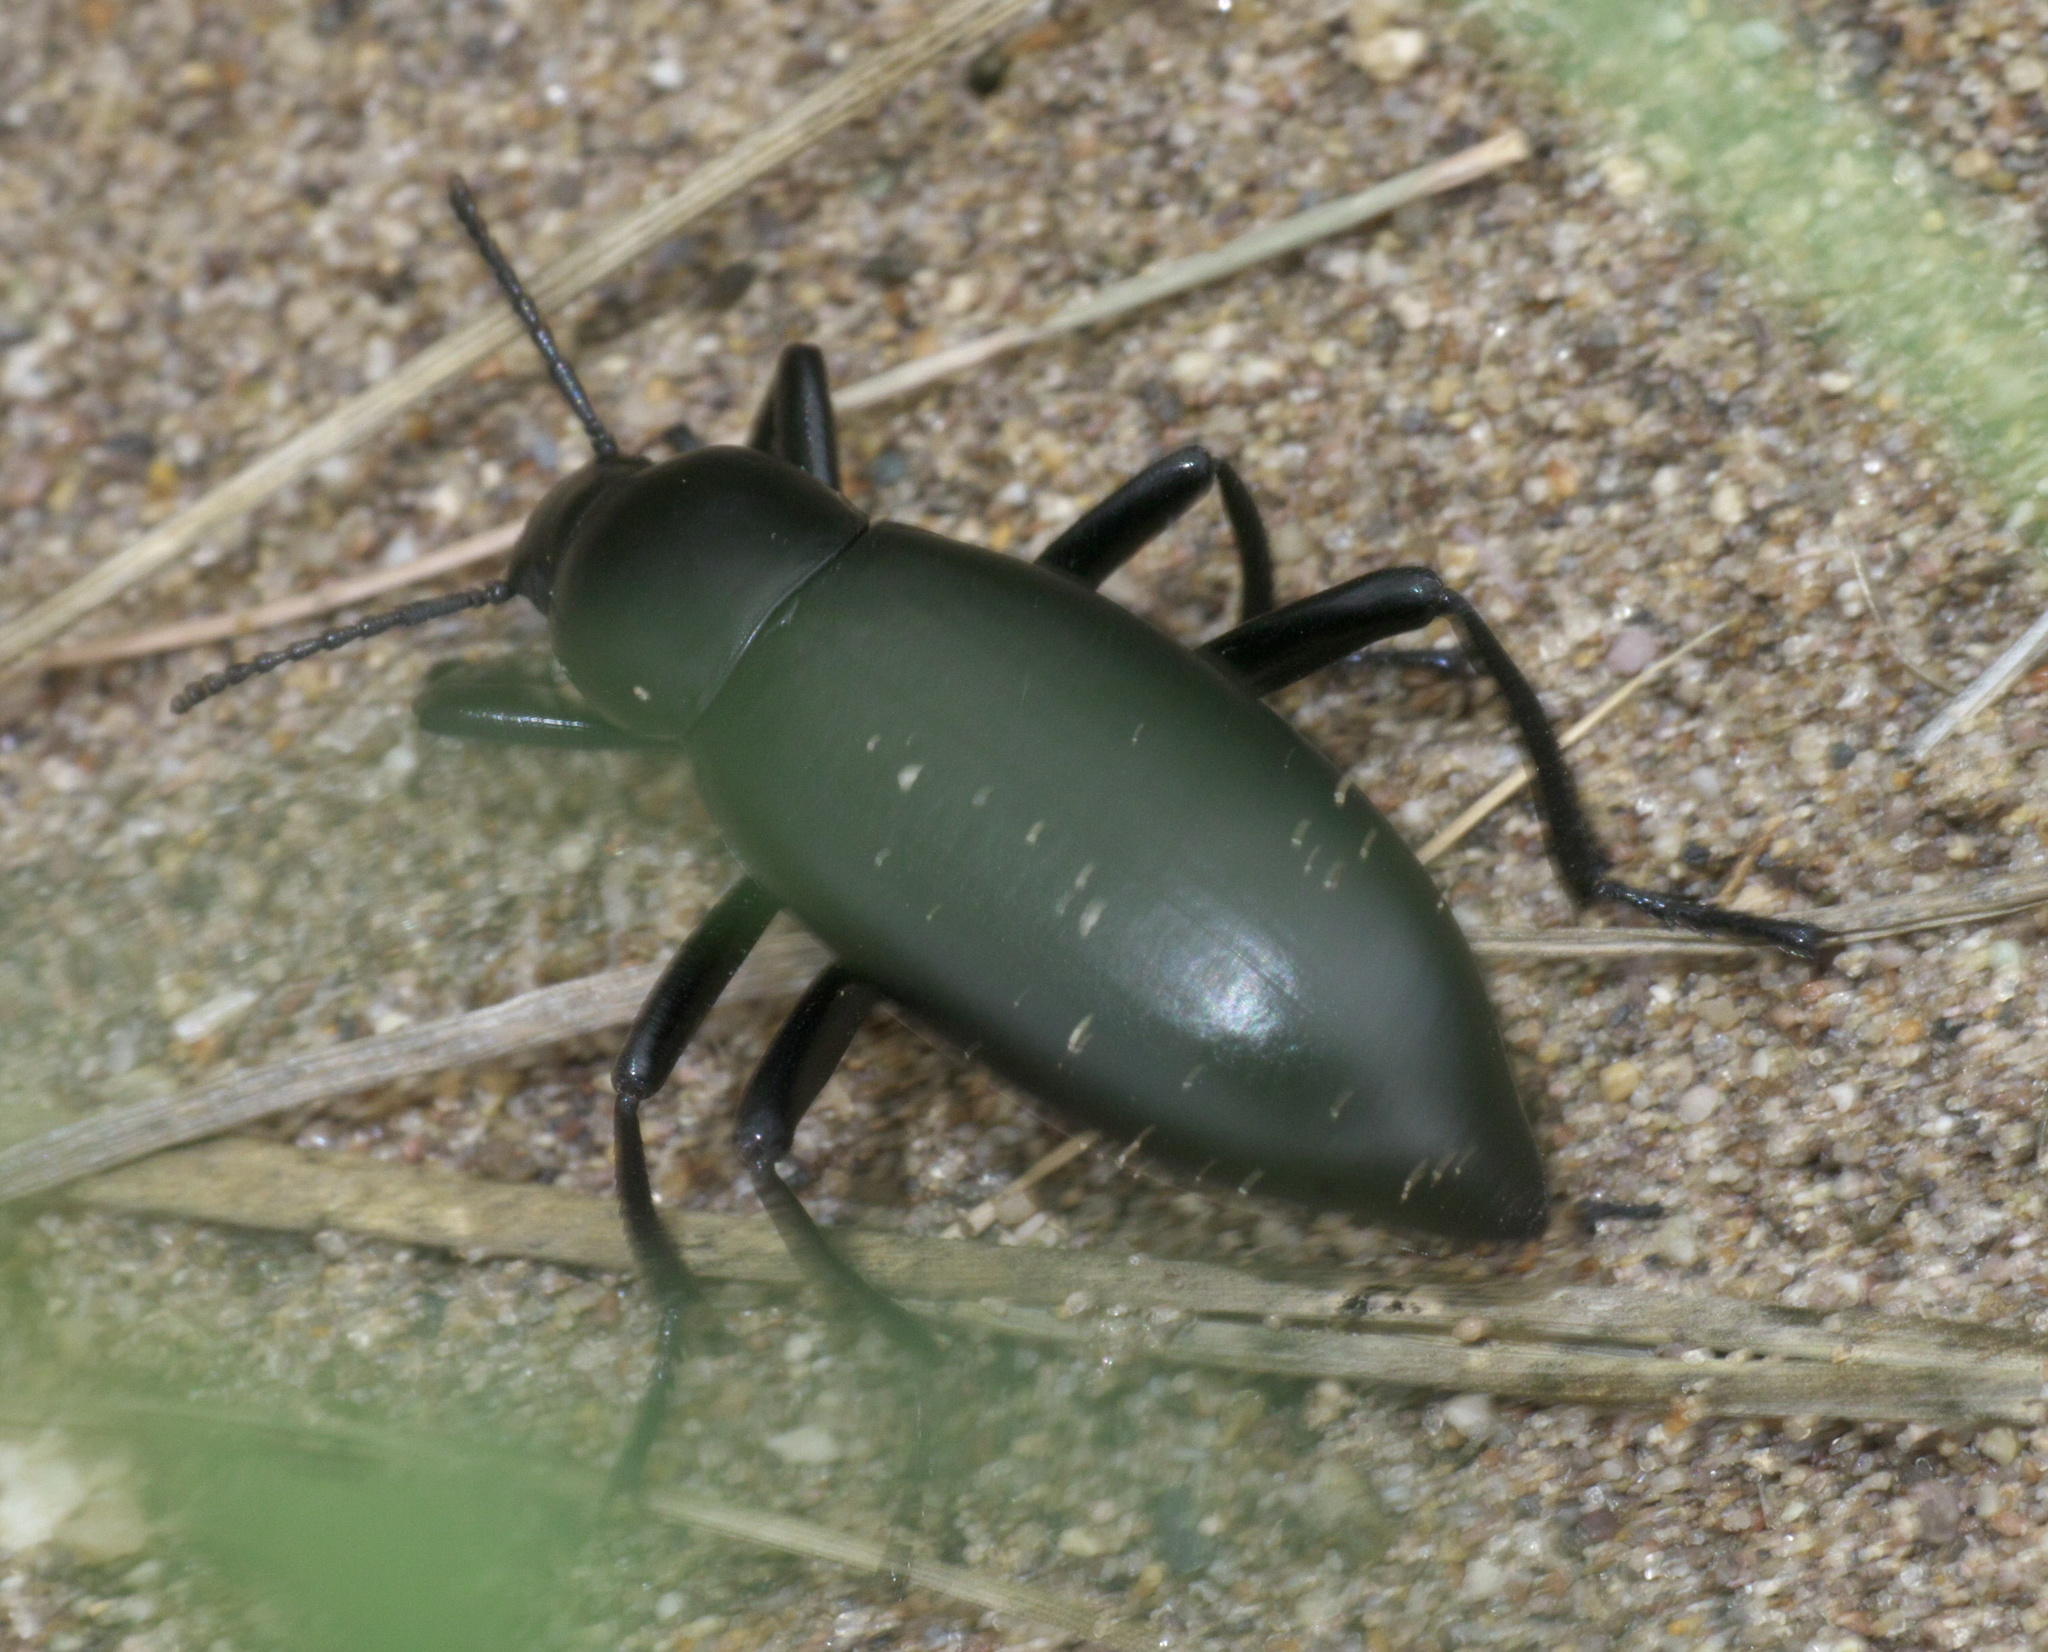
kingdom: Animalia
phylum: Arthropoda
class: Insecta
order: Coleoptera
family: Tenebrionidae
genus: Eleodes
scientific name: Eleodes longicollis
